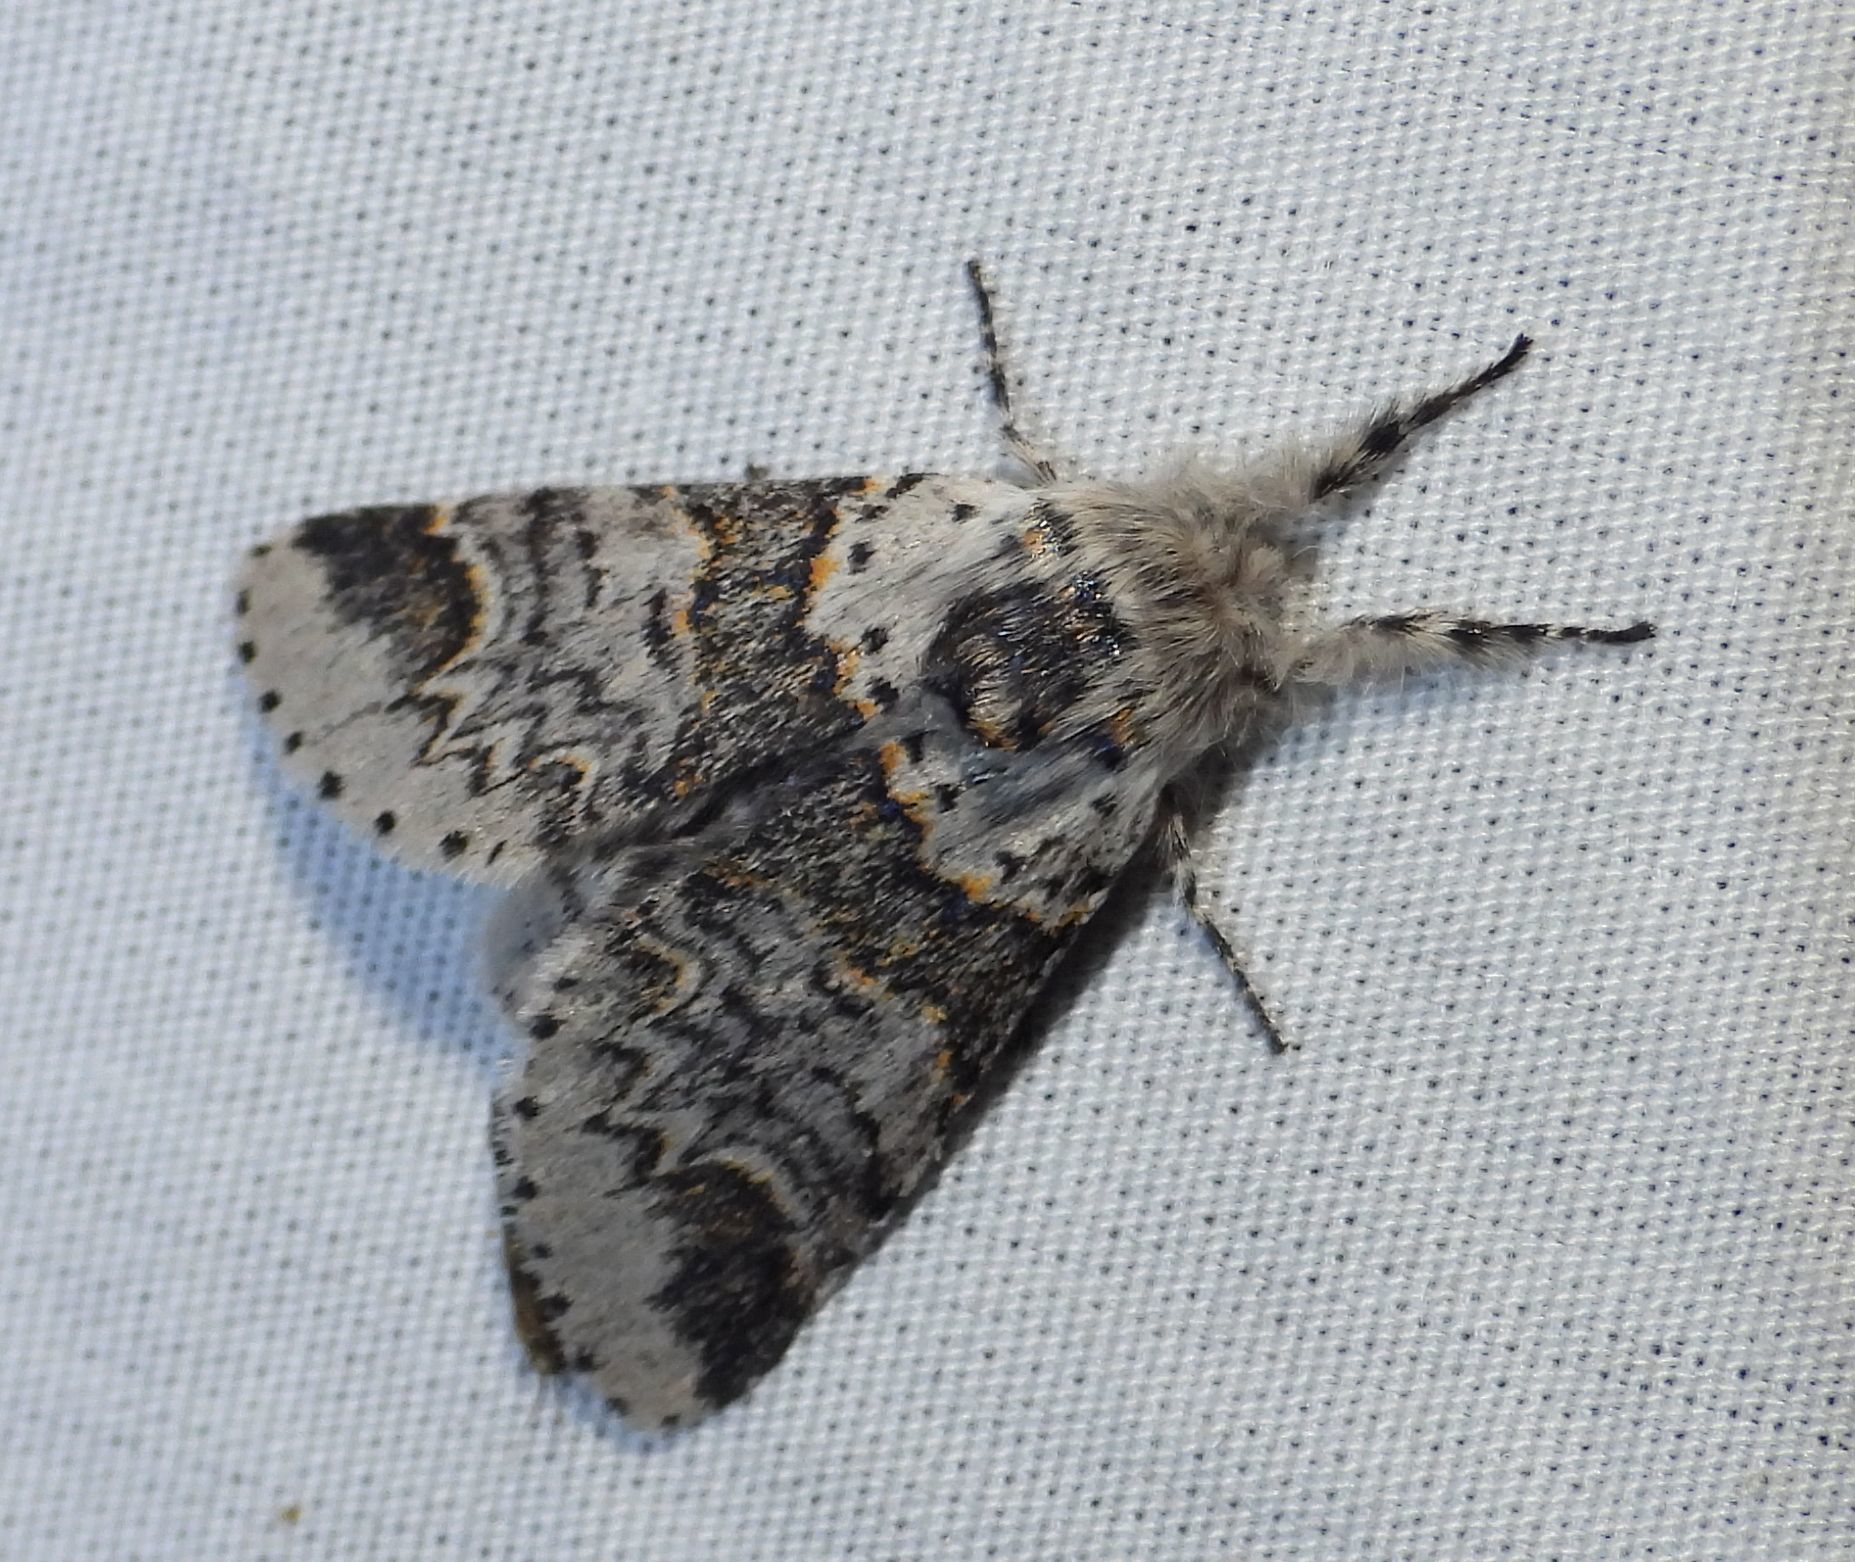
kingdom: Animalia
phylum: Arthropoda
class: Insecta
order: Lepidoptera
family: Notodontidae
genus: Furcula
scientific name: Furcula occidentalis
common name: Western furcula moth
